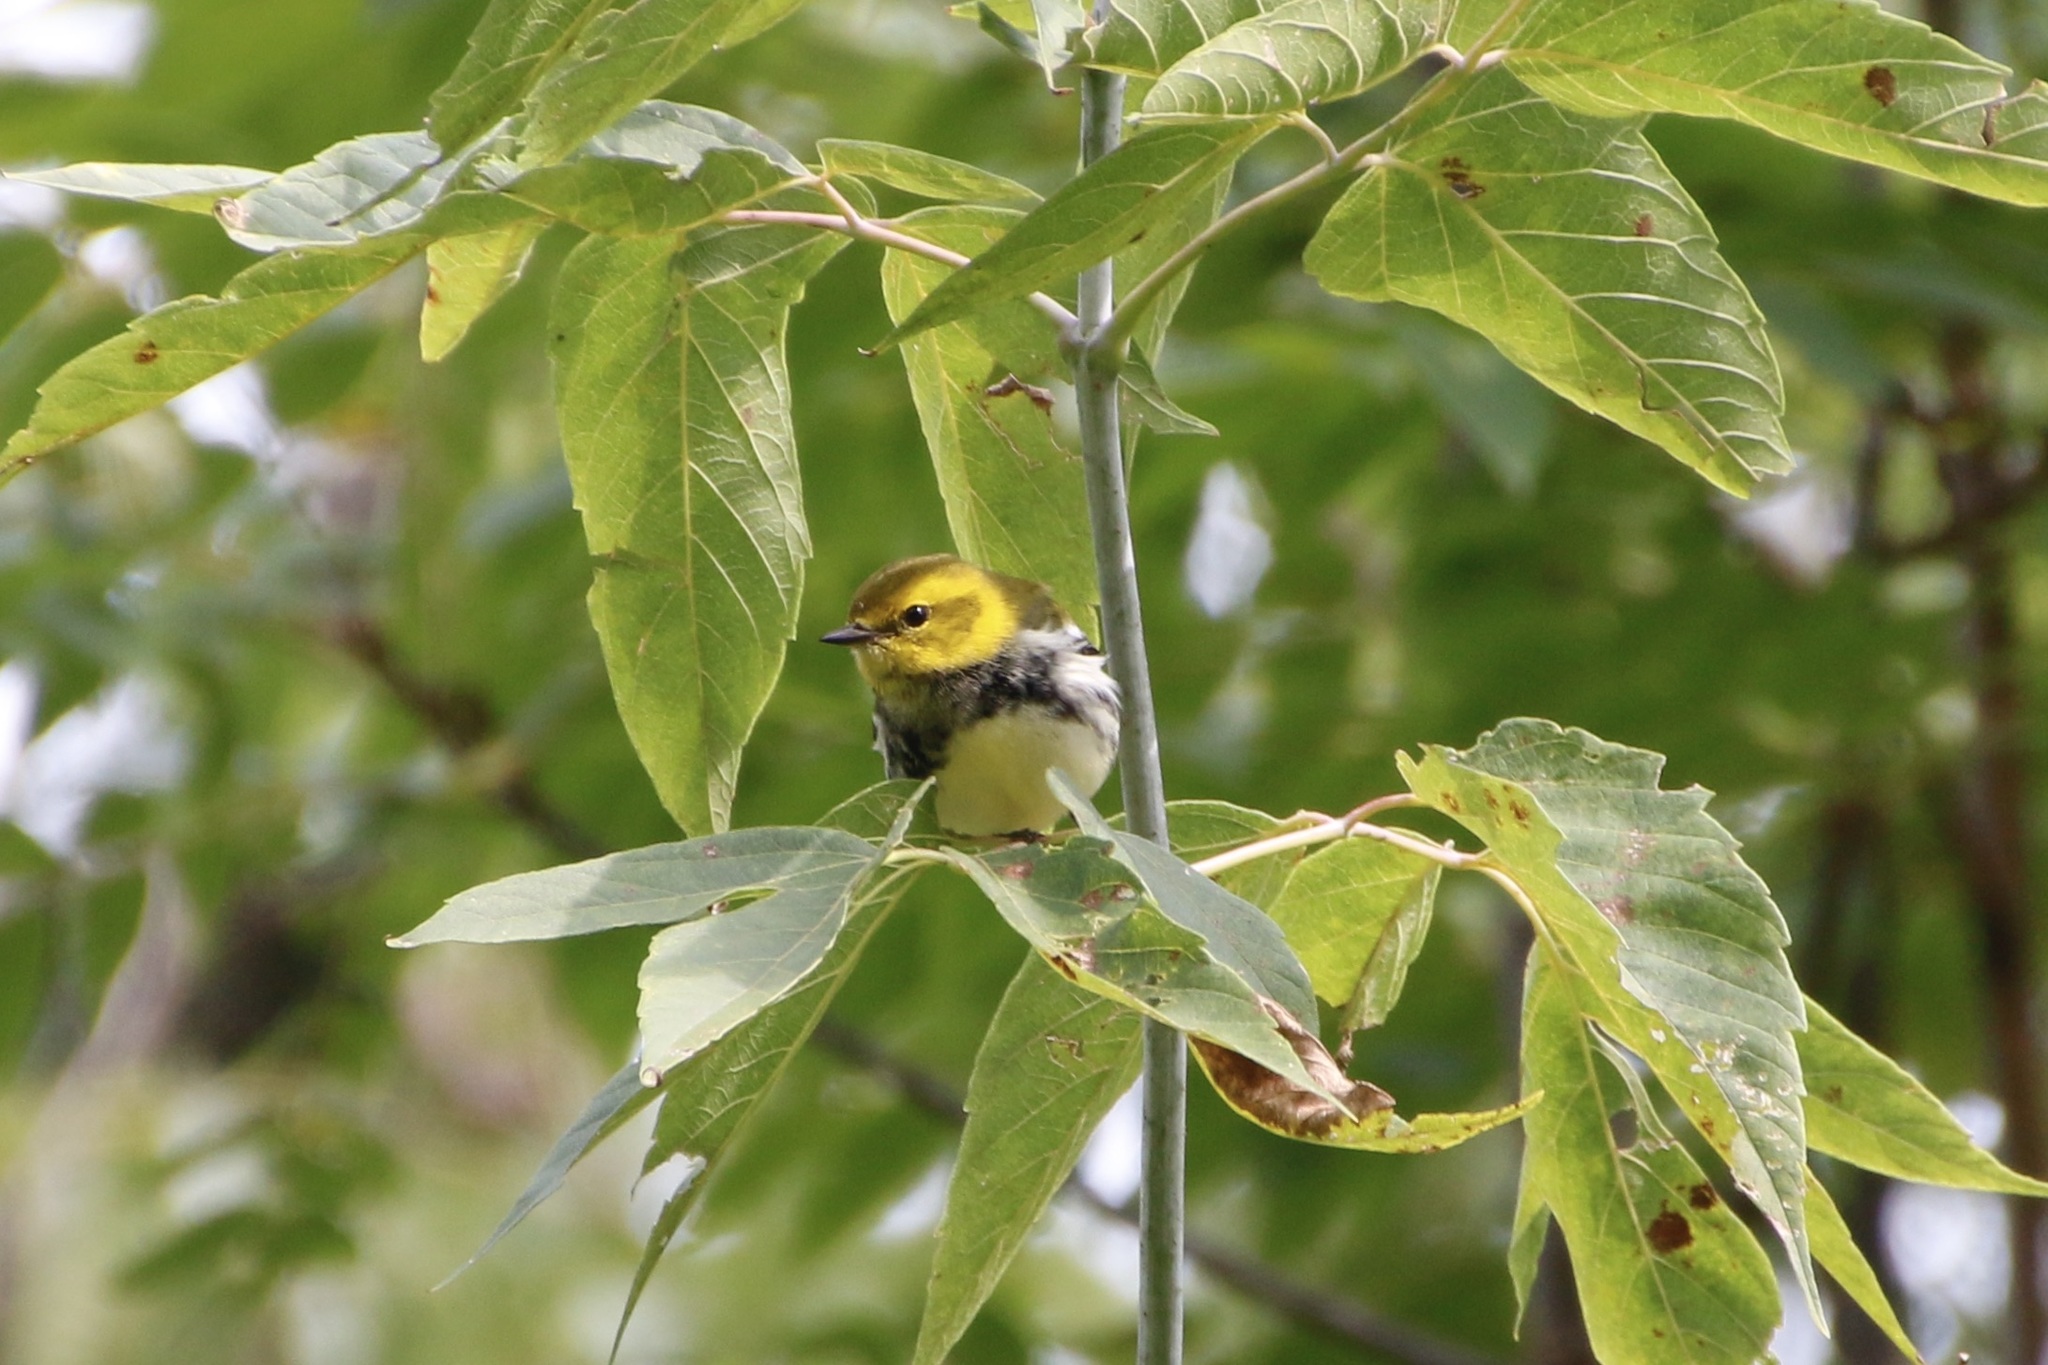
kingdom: Animalia
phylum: Chordata
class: Aves
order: Passeriformes
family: Parulidae
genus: Setophaga
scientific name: Setophaga virens
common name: Black-throated green warbler
